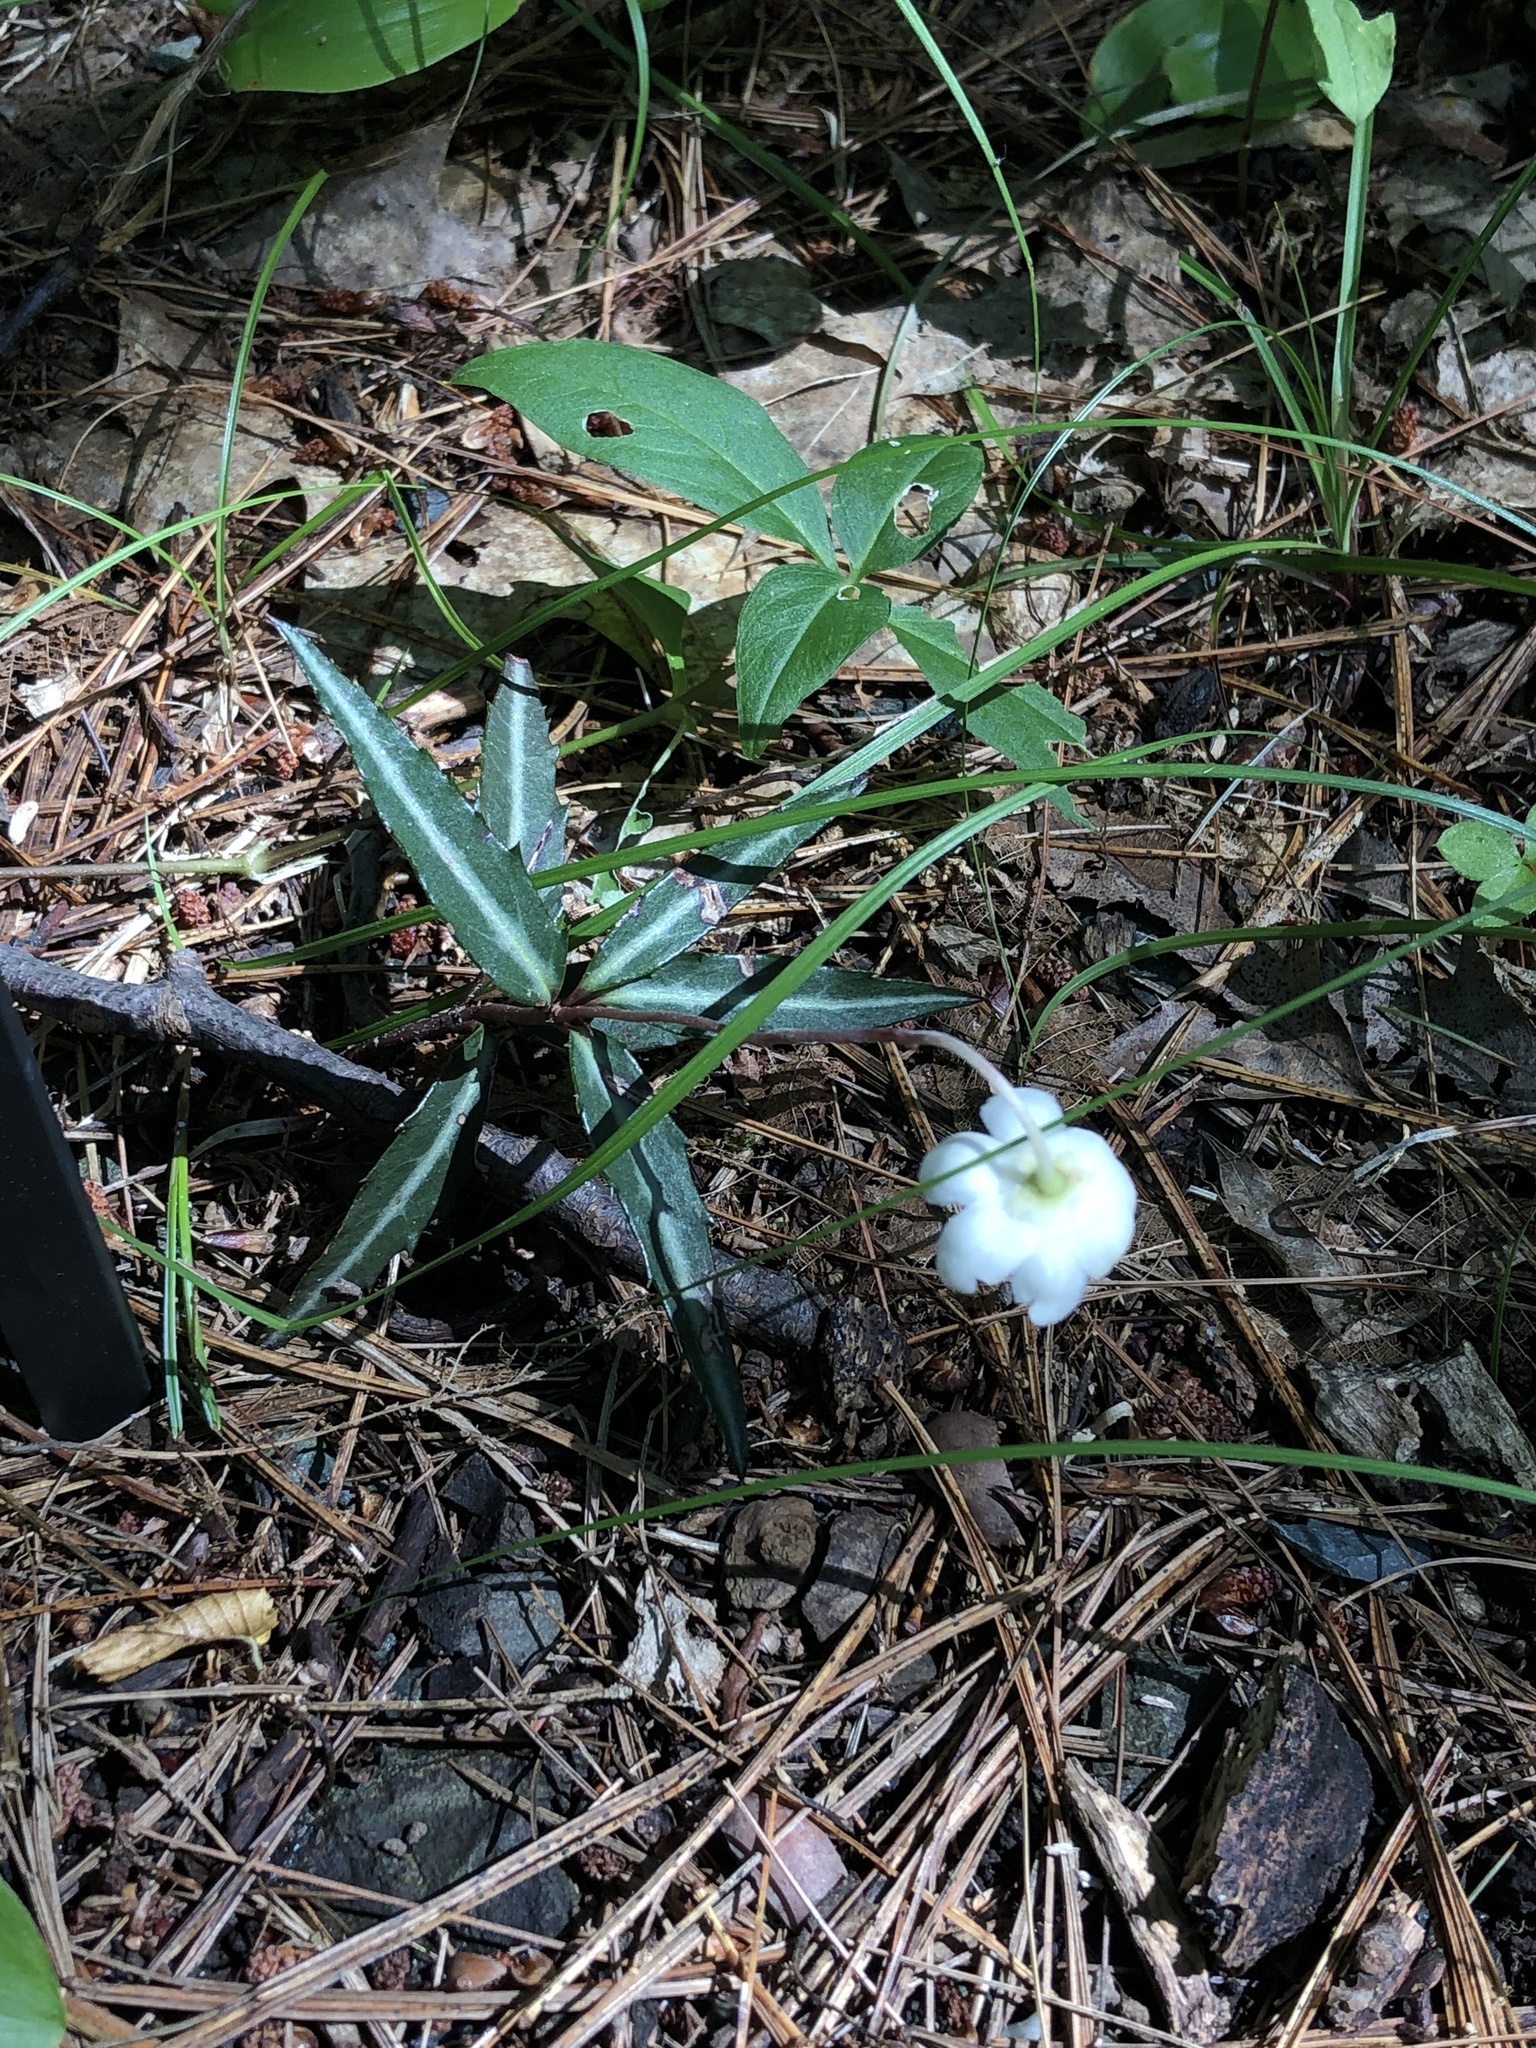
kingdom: Plantae
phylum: Tracheophyta
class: Magnoliopsida
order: Ericales
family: Ericaceae
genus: Chimaphila
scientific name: Chimaphila maculata
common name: Spotted pipsissewa
